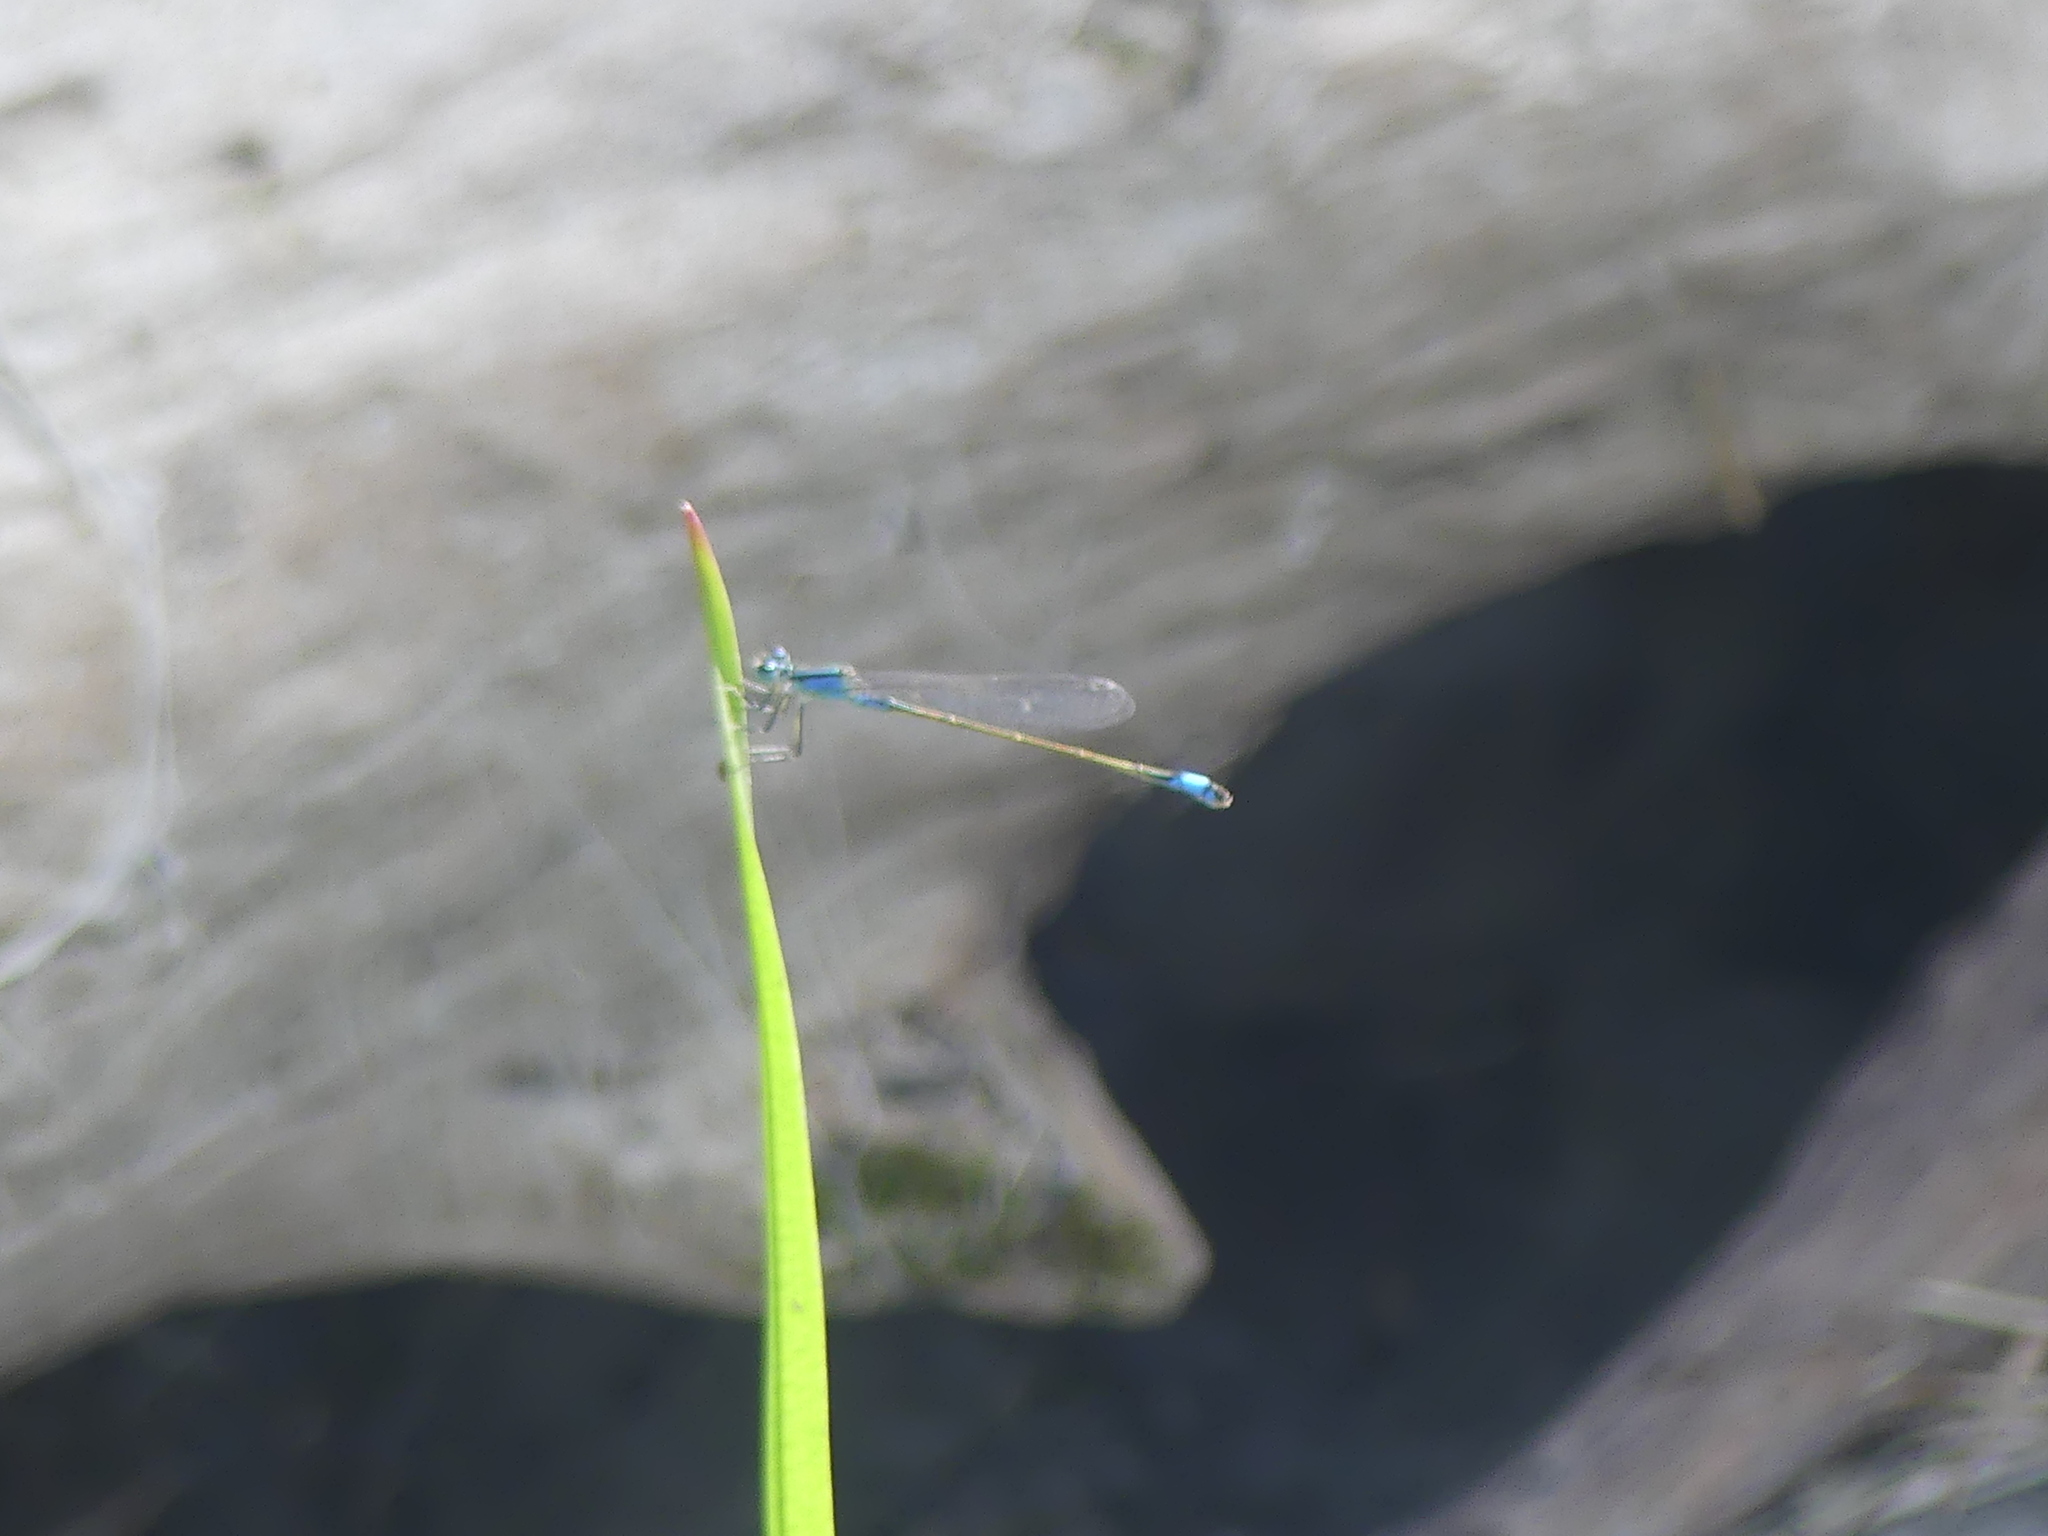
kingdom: Animalia
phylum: Arthropoda
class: Insecta
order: Odonata
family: Coenagrionidae
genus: Ischnura
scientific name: Ischnura elegans
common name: Blue-tailed damselfly
